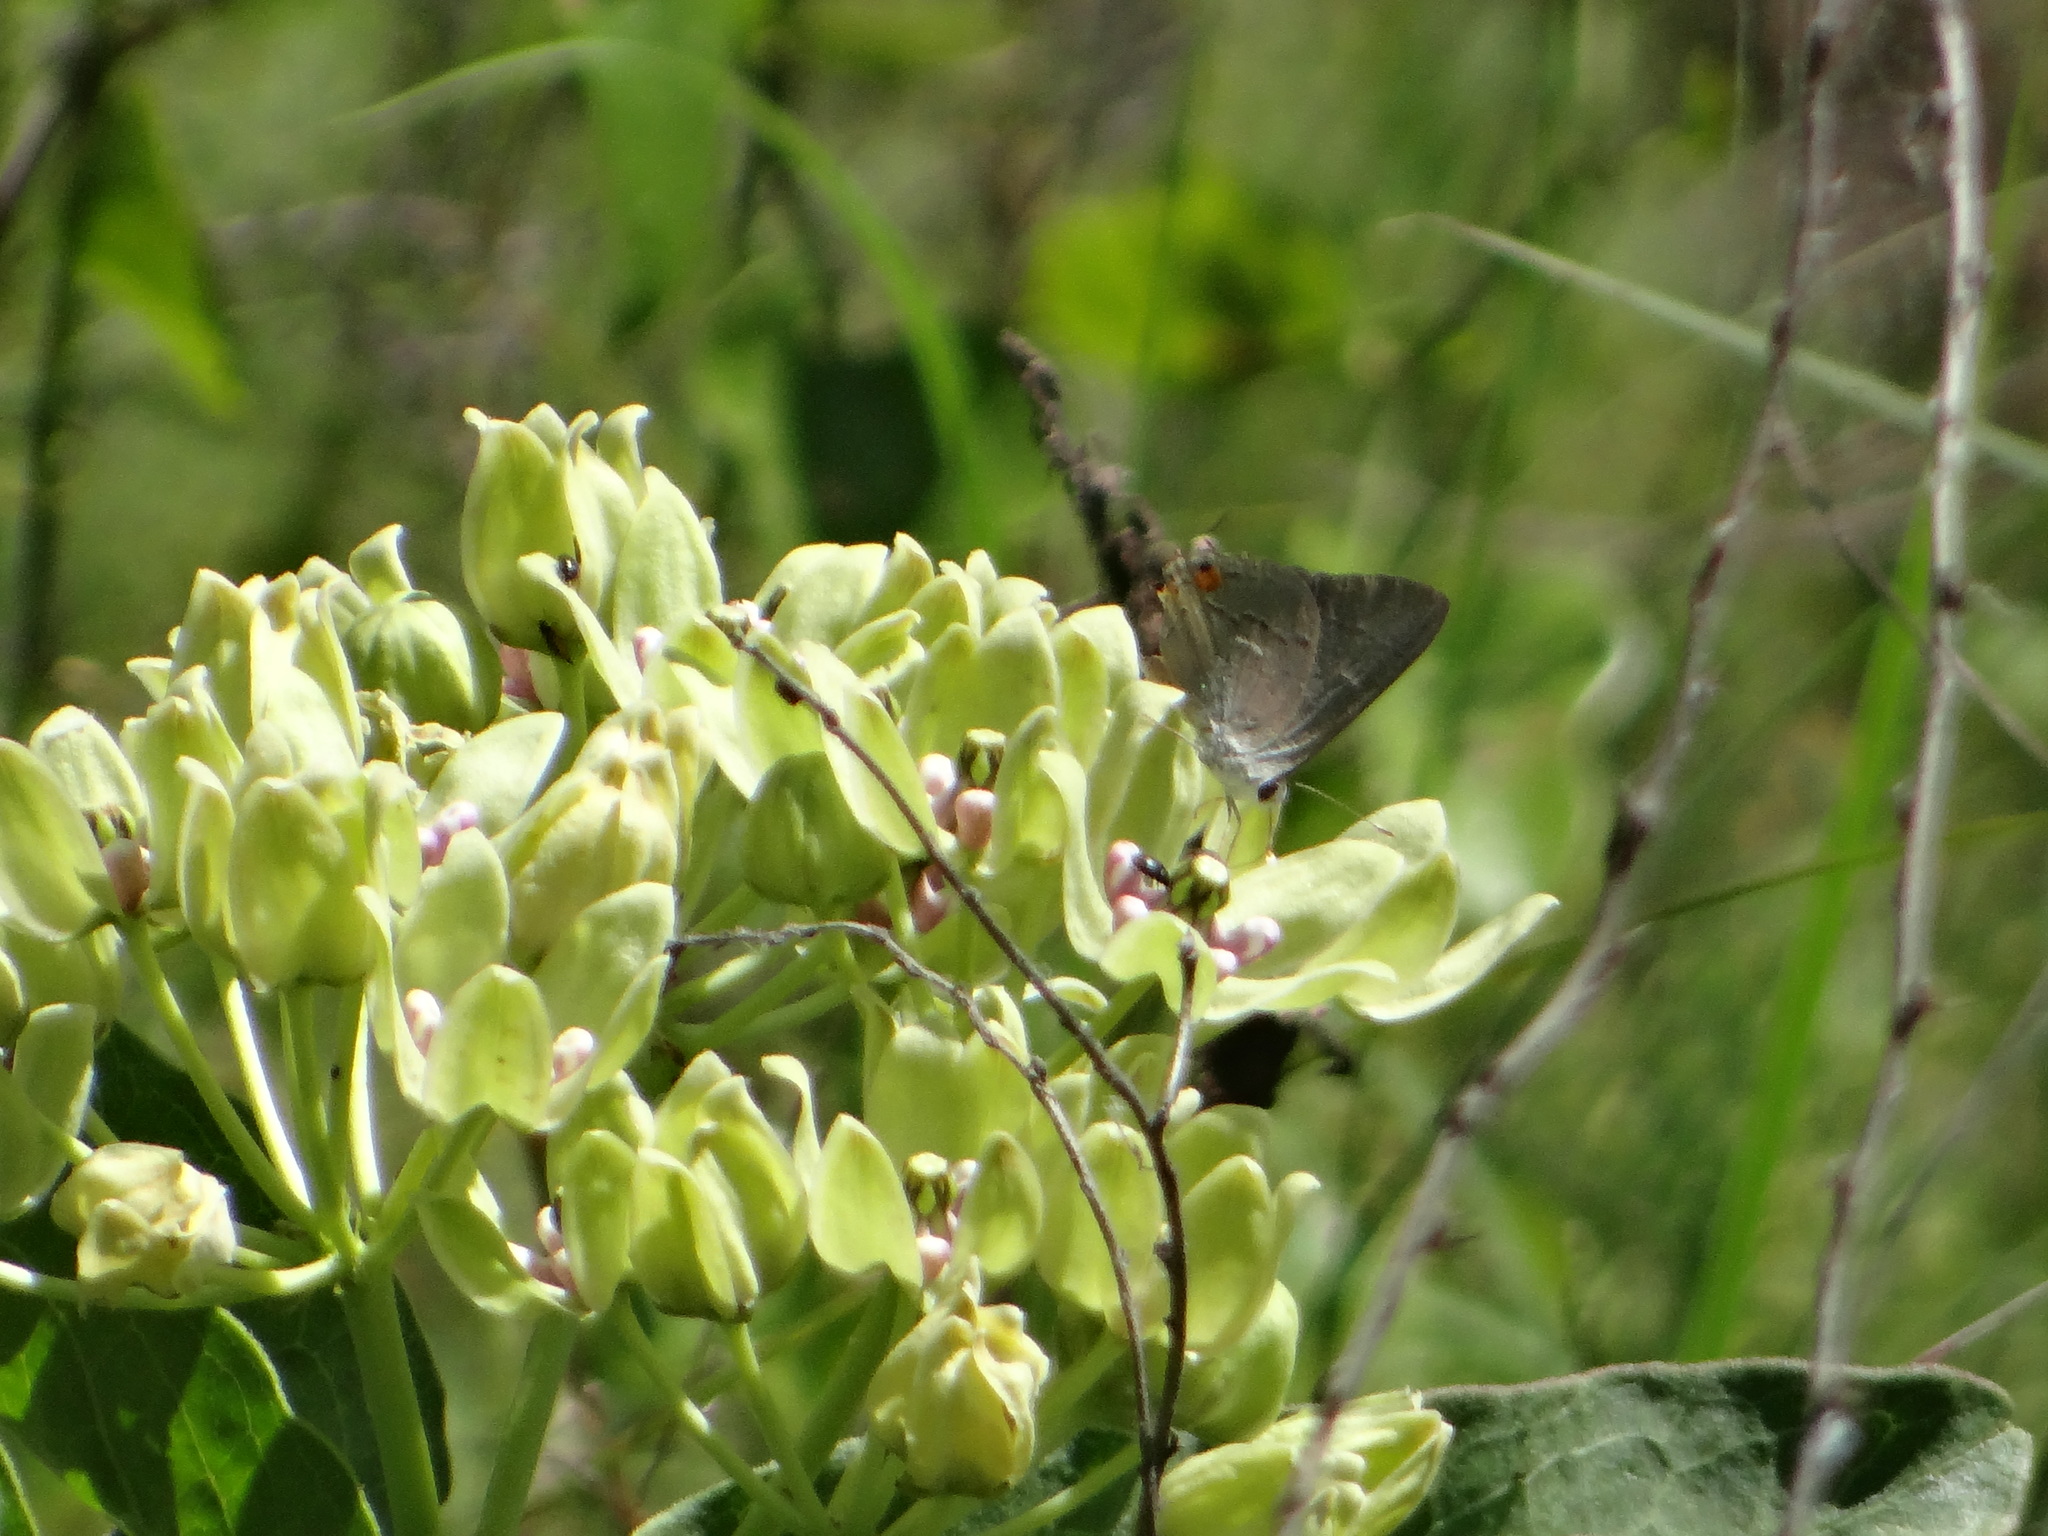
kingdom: Animalia
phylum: Arthropoda
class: Insecta
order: Lepidoptera
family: Lycaenidae
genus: Strymon
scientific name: Strymon melinus
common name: Gray hairstreak
